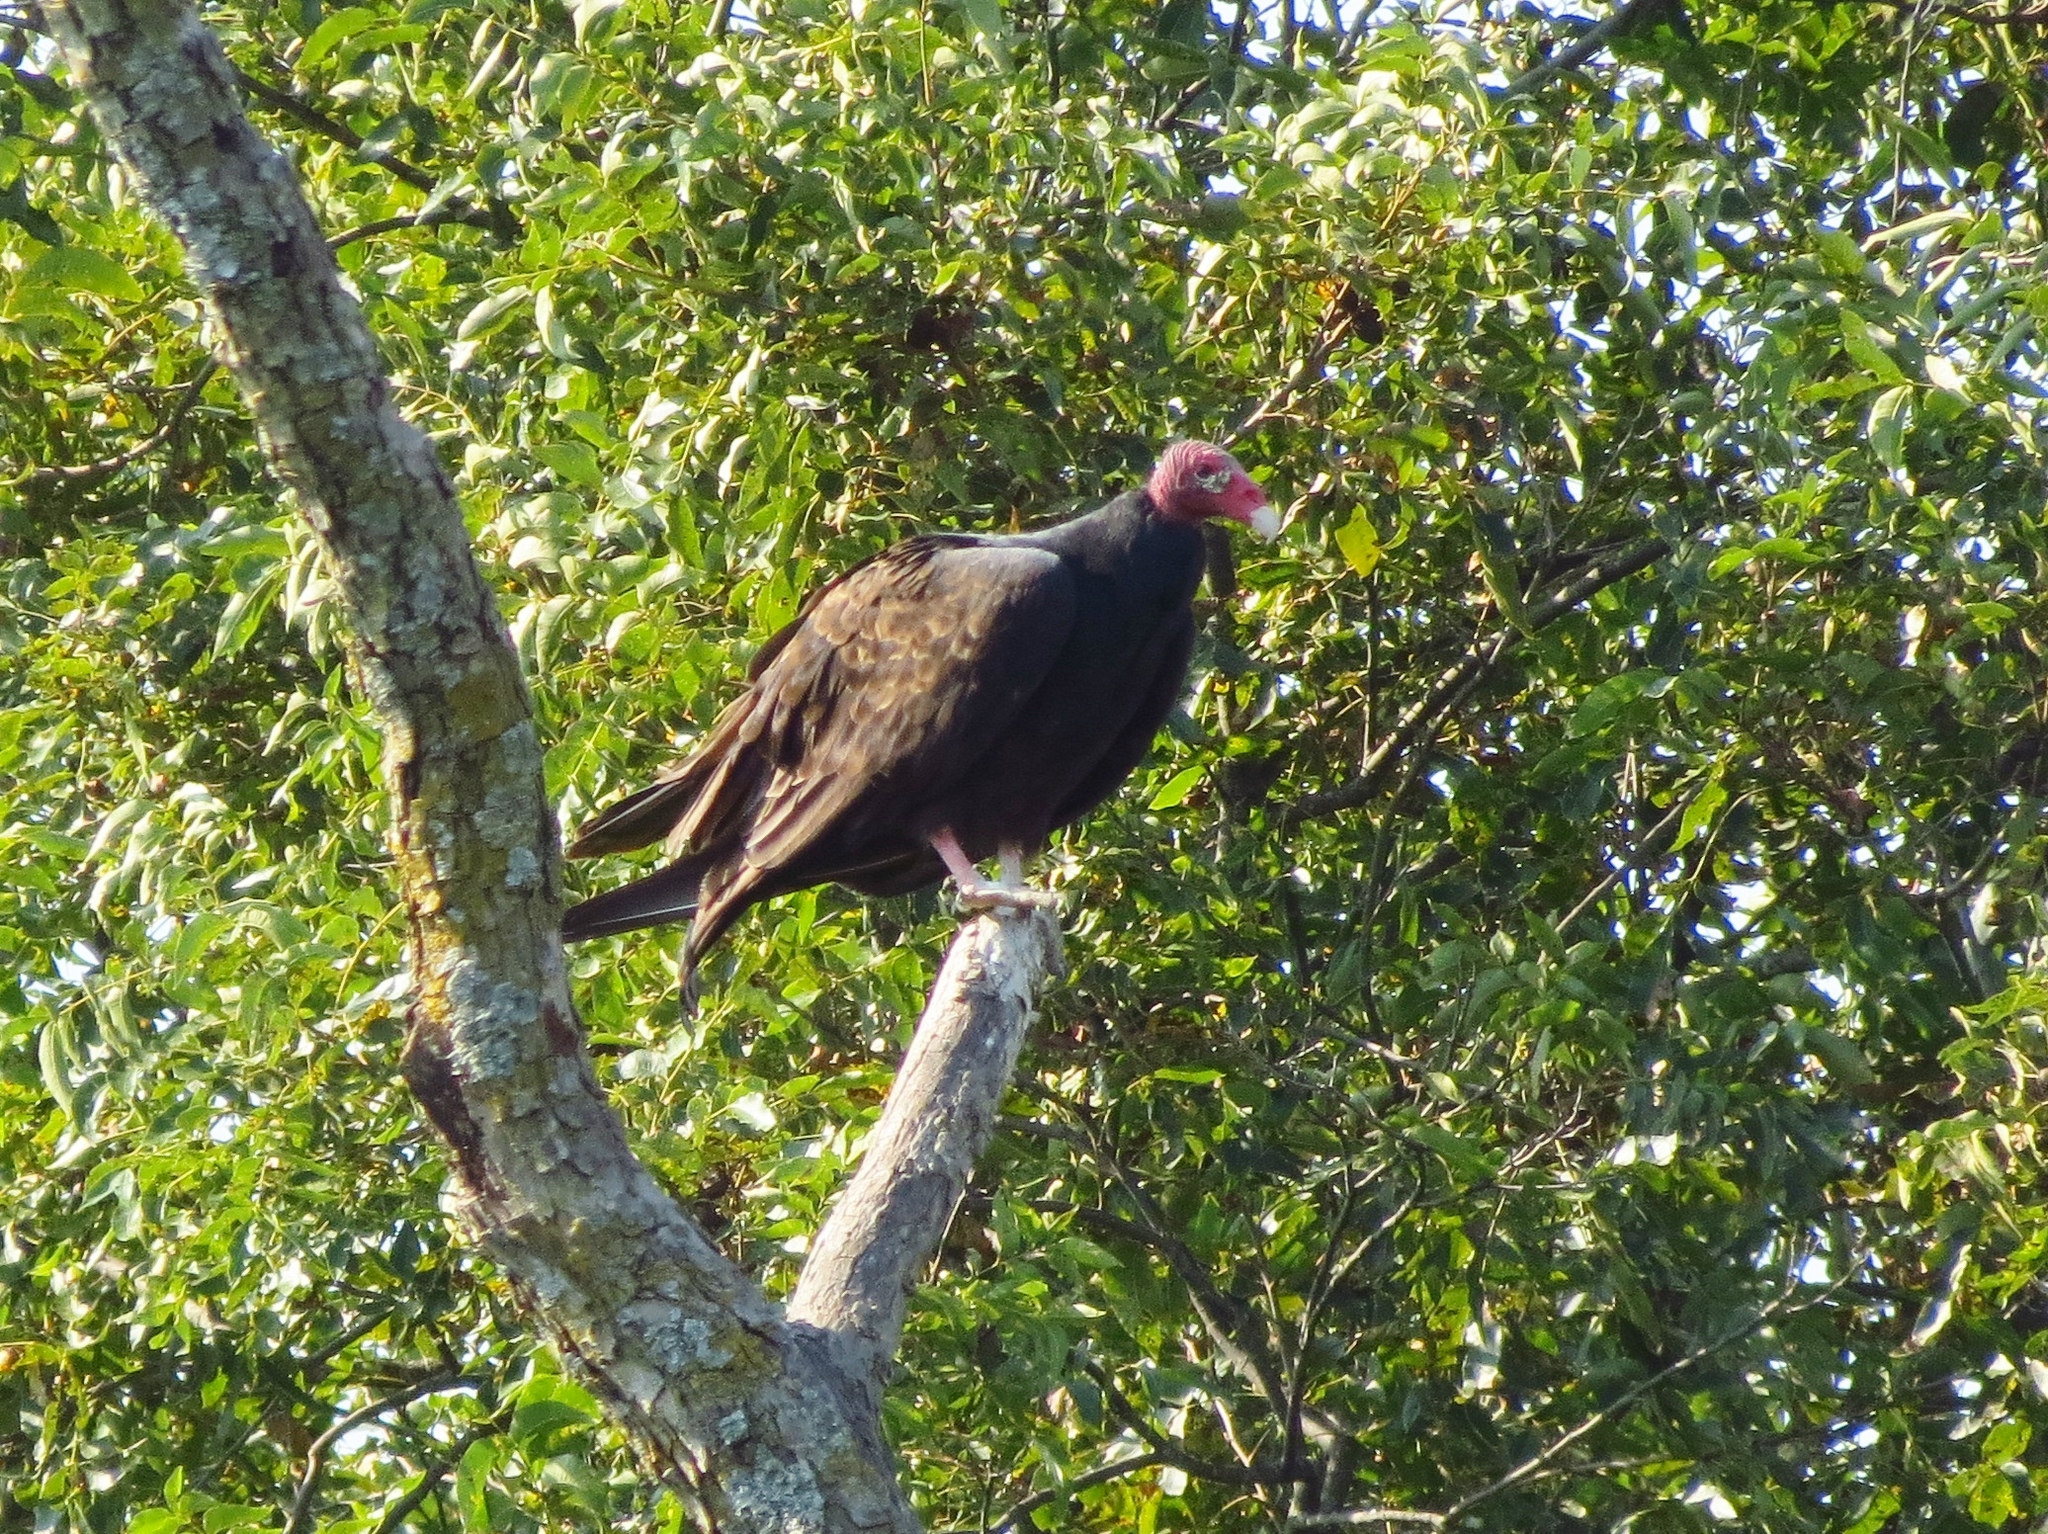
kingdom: Animalia
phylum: Chordata
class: Aves
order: Accipitriformes
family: Cathartidae
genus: Cathartes
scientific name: Cathartes aura
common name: Turkey vulture
